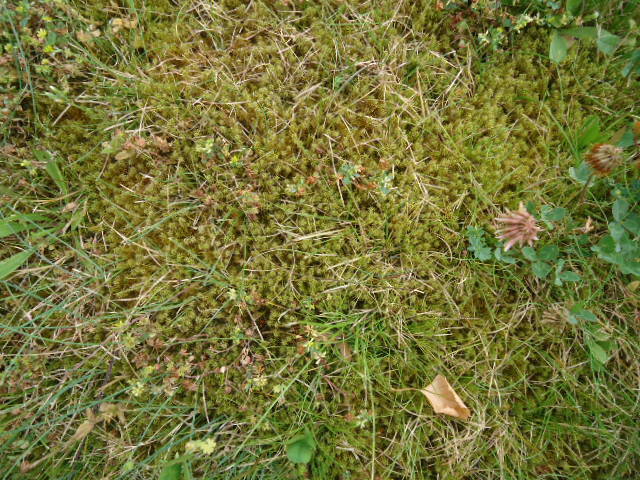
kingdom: Plantae
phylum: Bryophyta
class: Bryopsida
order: Hypnales
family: Hylocomiaceae
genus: Rhytidiadelphus
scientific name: Rhytidiadelphus squarrosus
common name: Springy turf-moss
